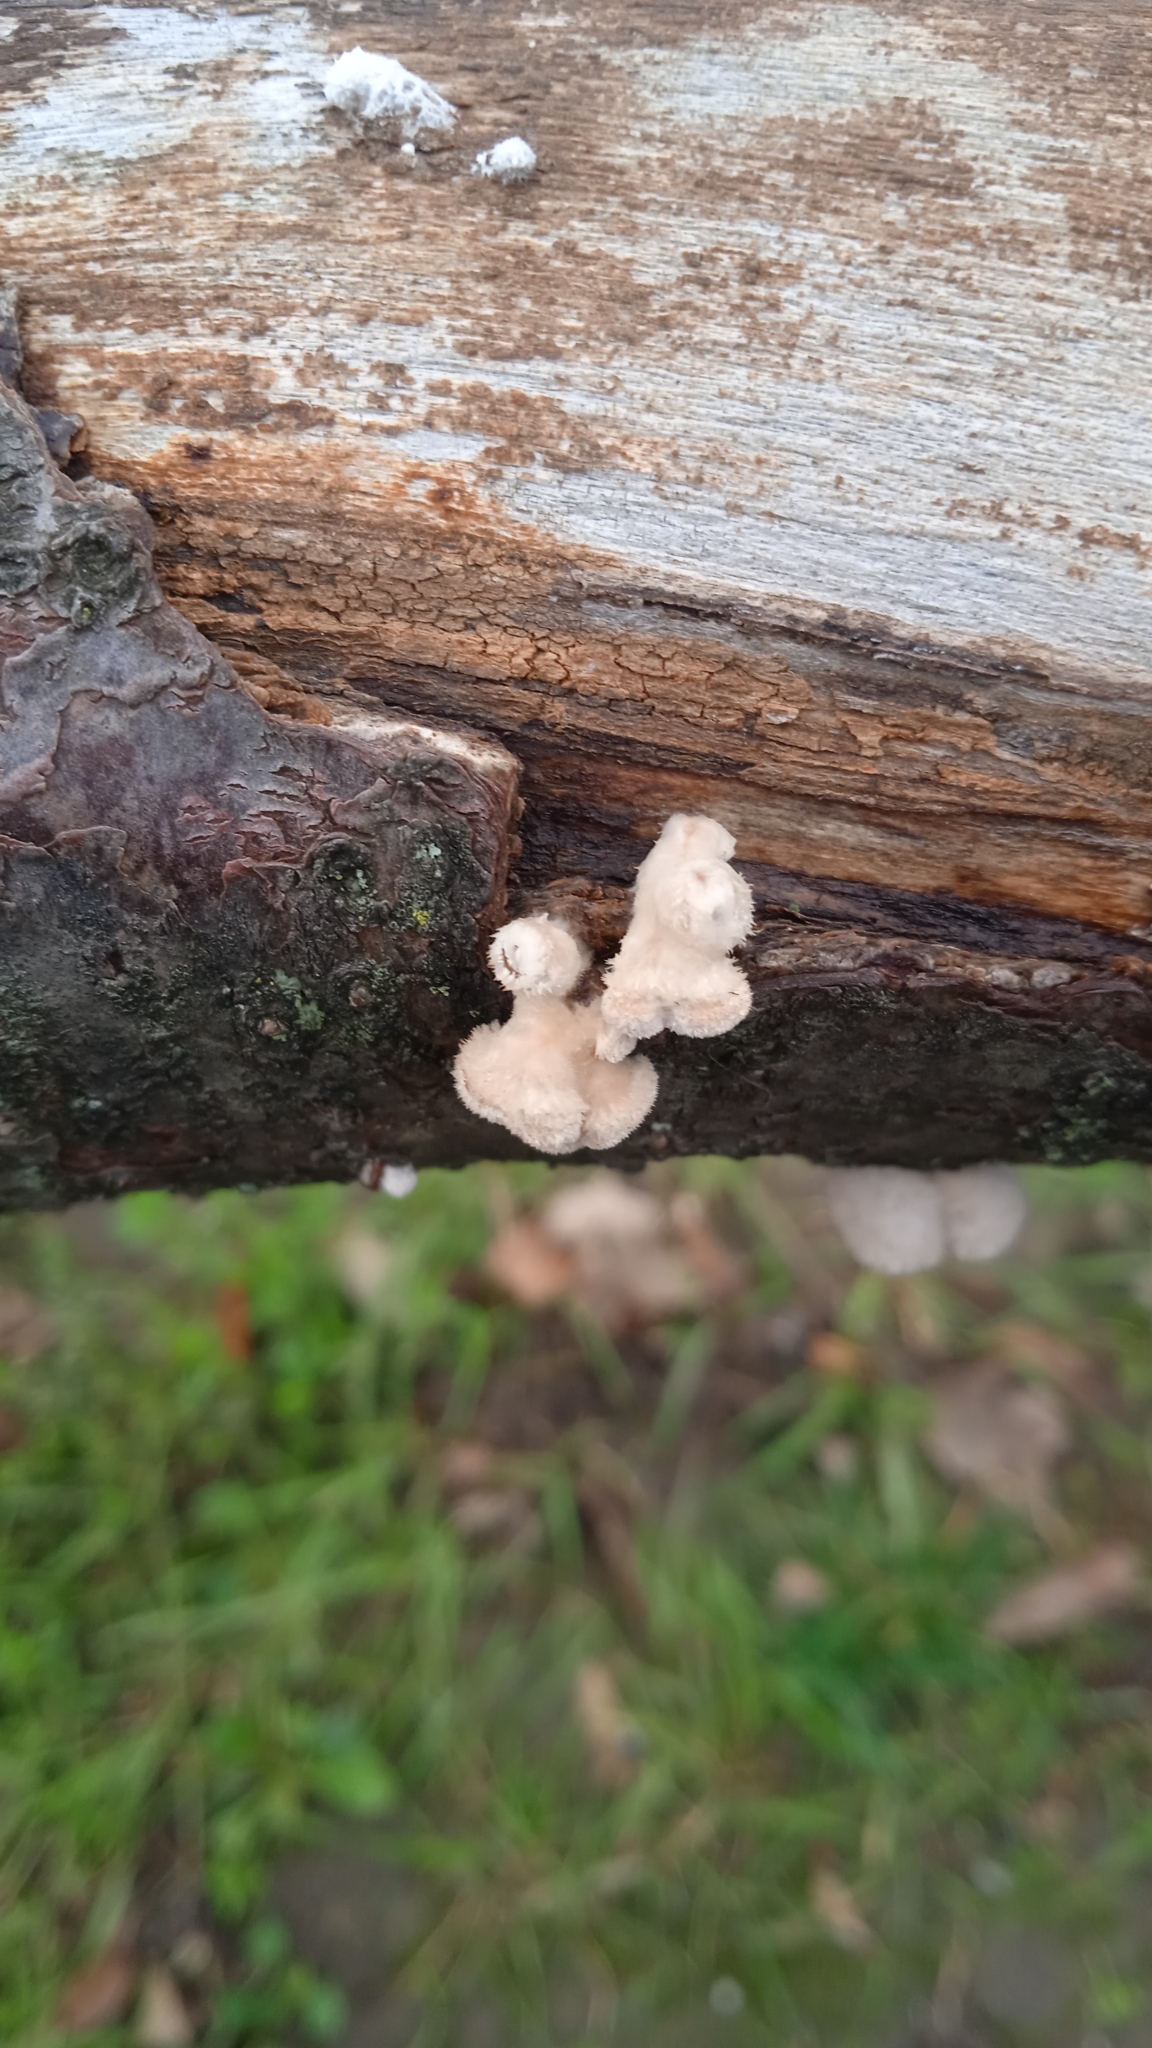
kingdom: Fungi
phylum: Basidiomycota
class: Agaricomycetes
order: Agaricales
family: Schizophyllaceae
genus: Schizophyllum
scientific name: Schizophyllum commune
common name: Common porecrust
